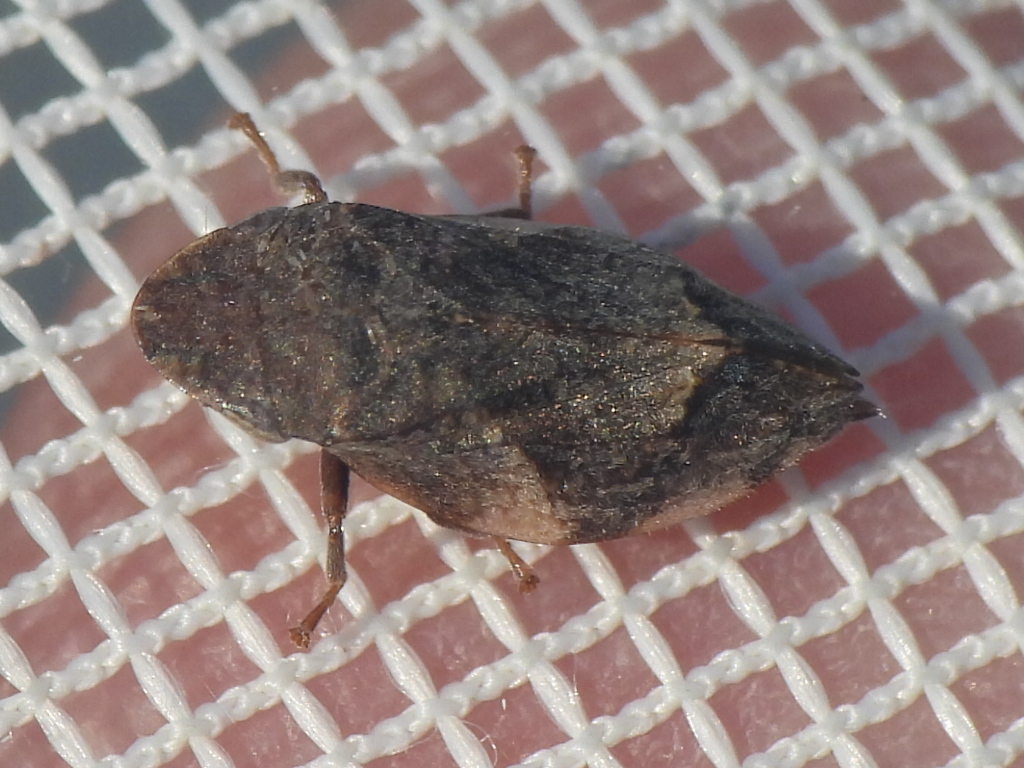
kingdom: Animalia
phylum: Arthropoda
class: Insecta
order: Hemiptera
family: Aphrophoridae
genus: Lepyronia
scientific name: Lepyronia quadrangularis
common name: Diamond-backed spittlebug
